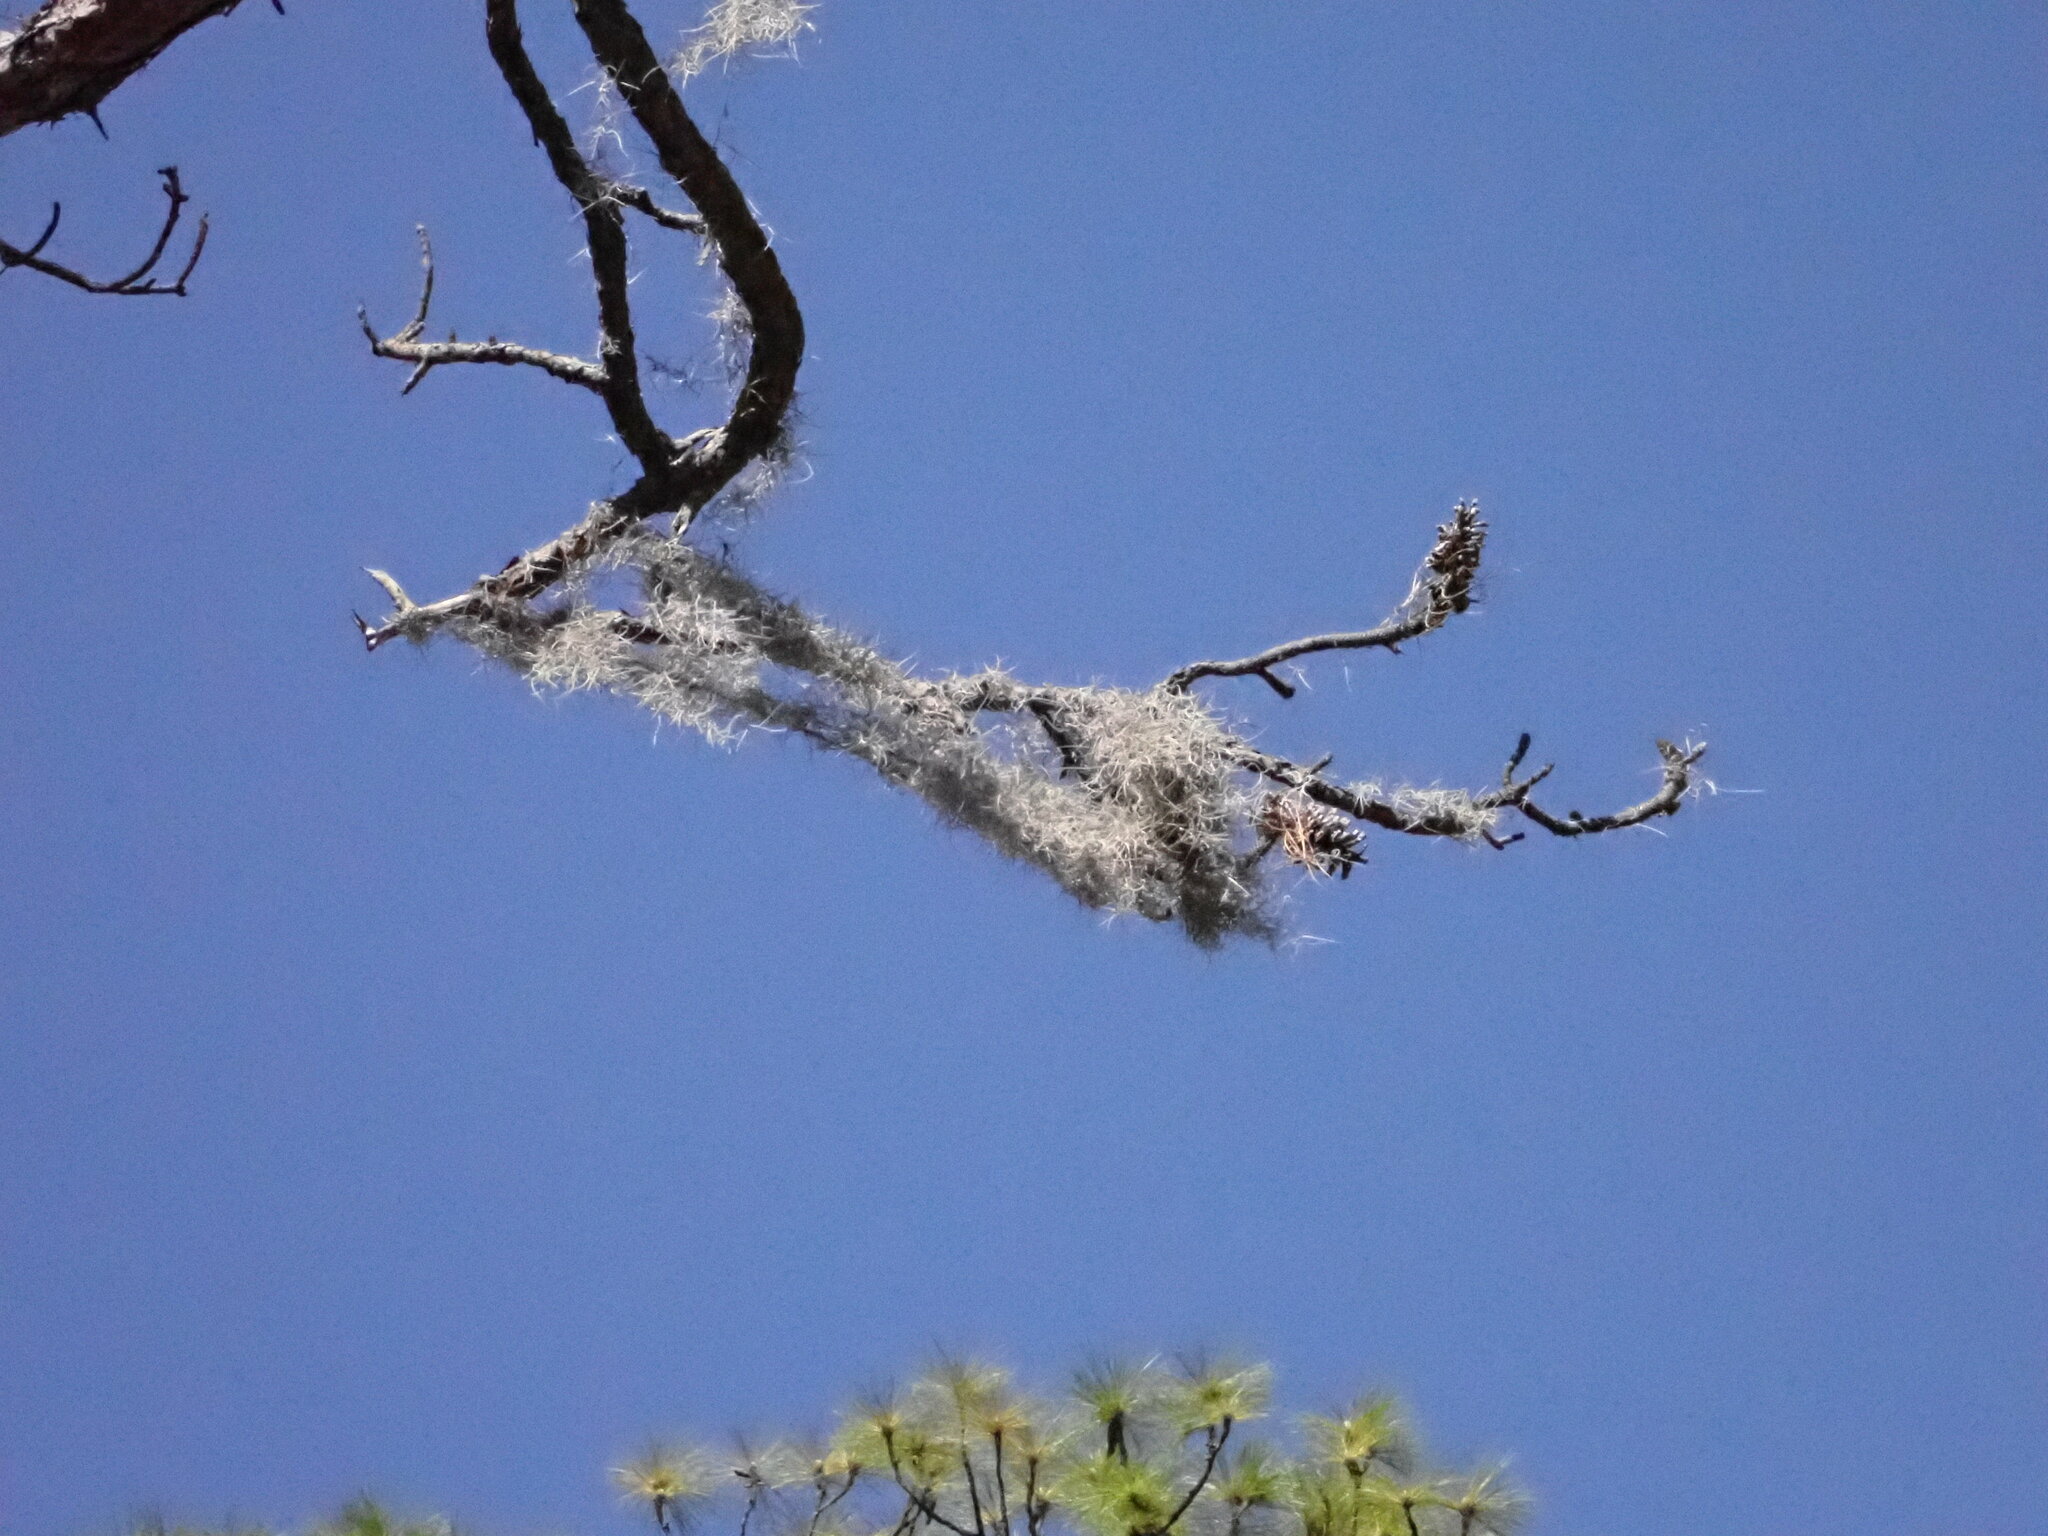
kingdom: Plantae
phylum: Tracheophyta
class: Liliopsida
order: Poales
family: Bromeliaceae
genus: Tillandsia
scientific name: Tillandsia usneoides
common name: Spanish moss
